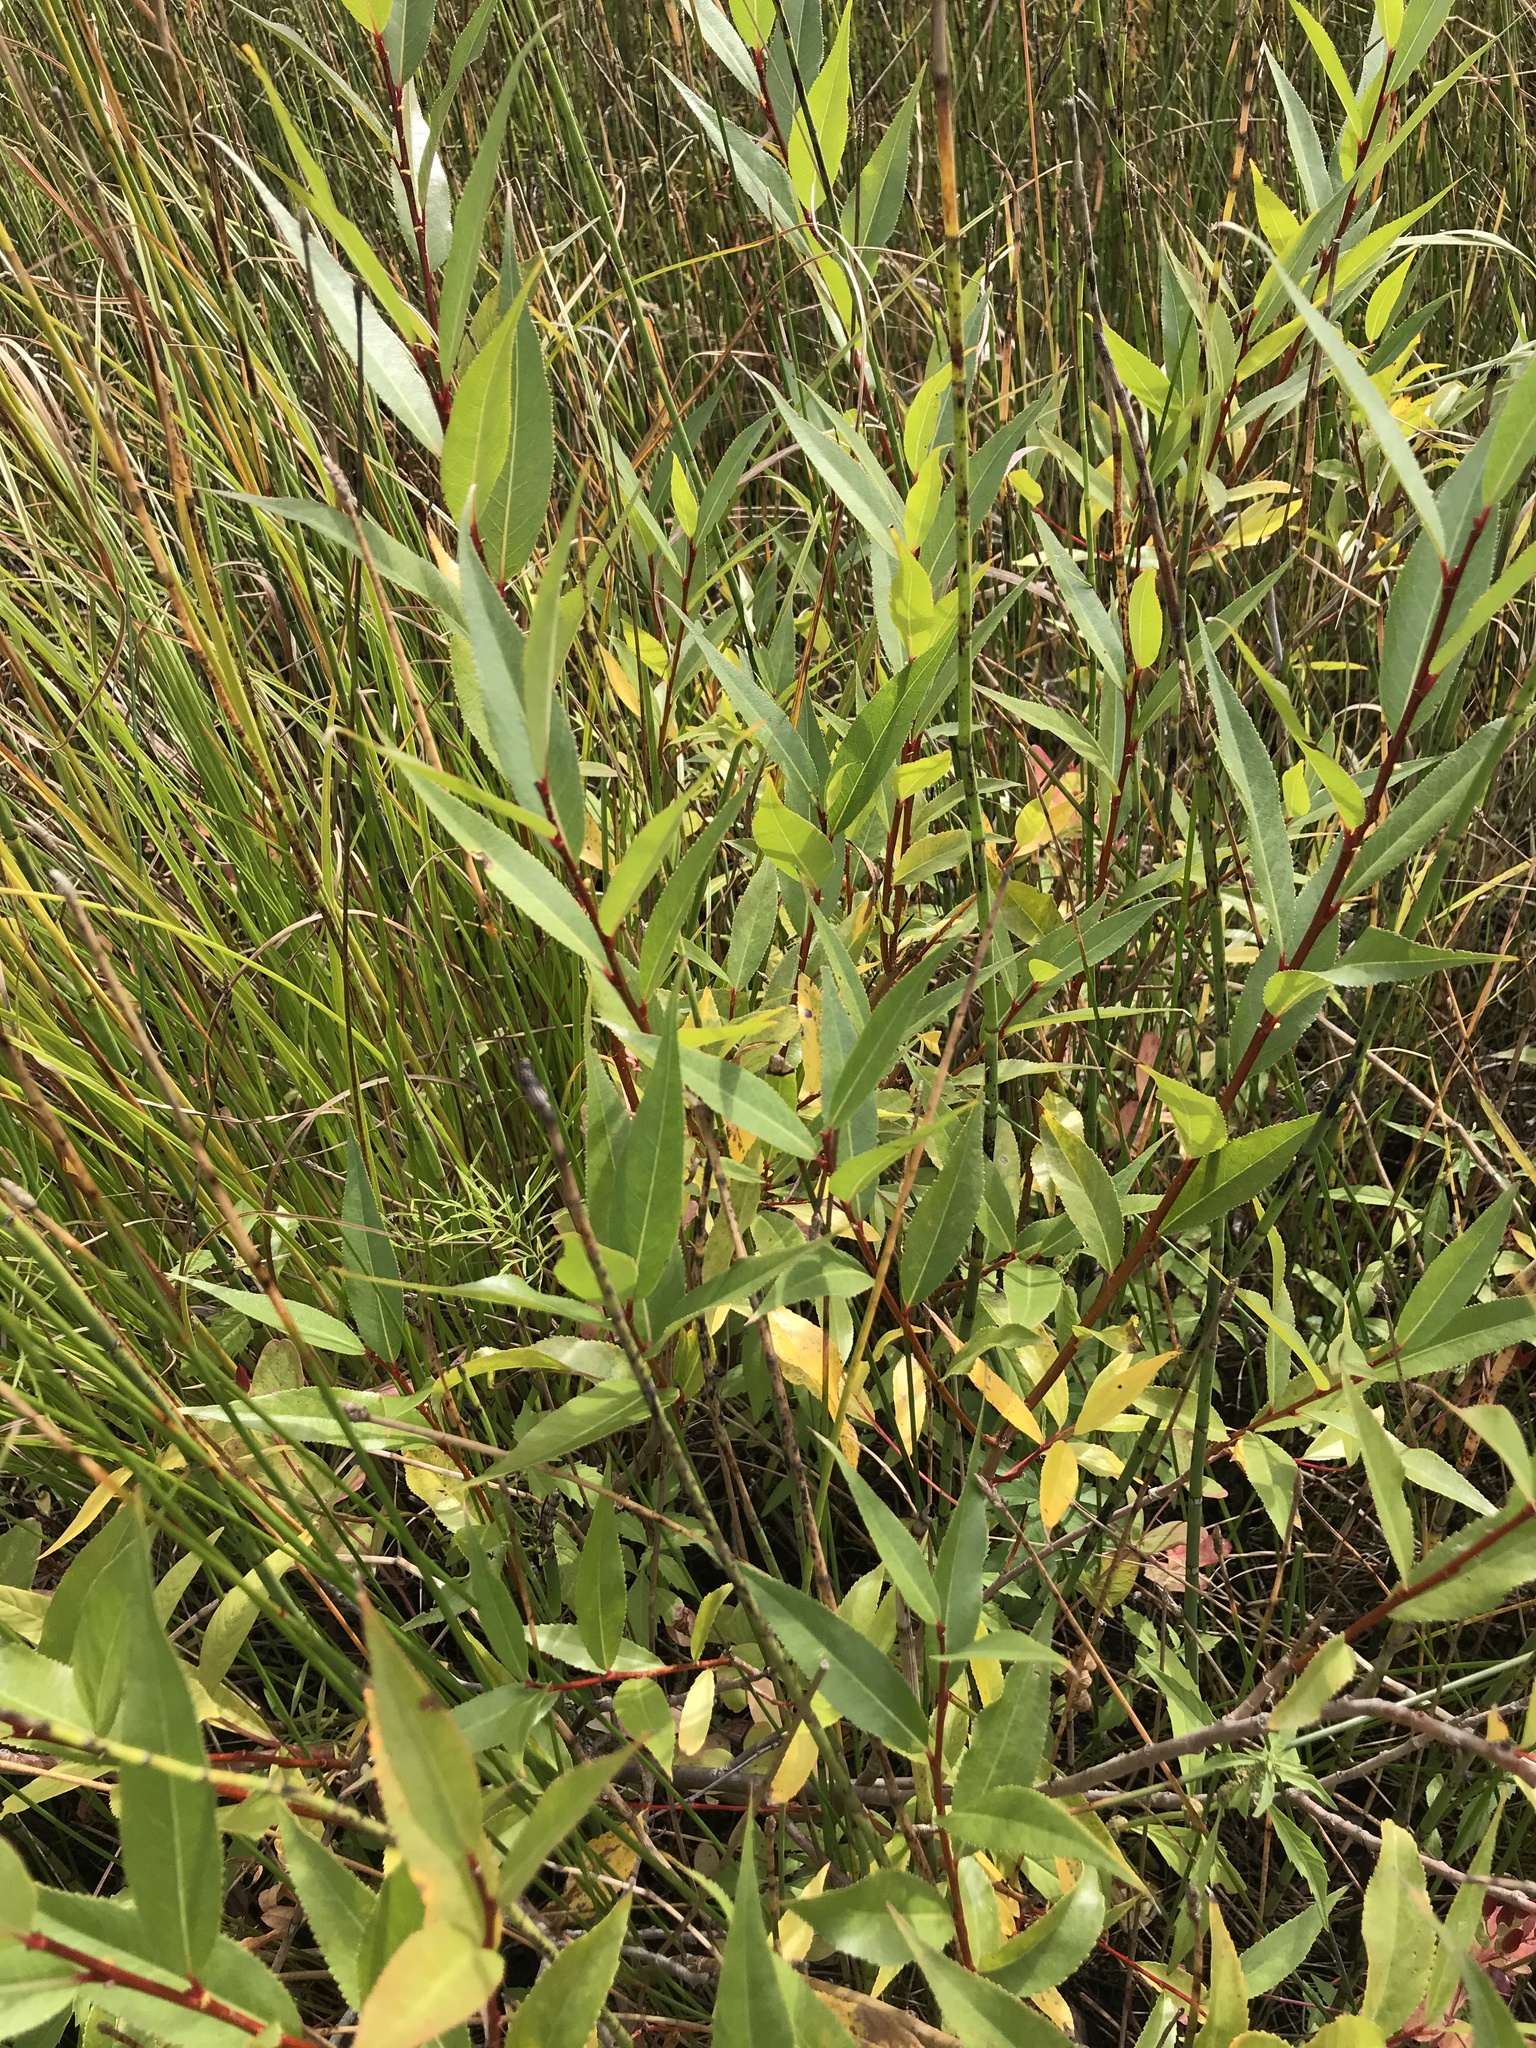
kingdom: Plantae
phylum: Tracheophyta
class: Magnoliopsida
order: Malpighiales
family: Salicaceae
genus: Salix
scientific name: Salix lucida
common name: Shining willow
